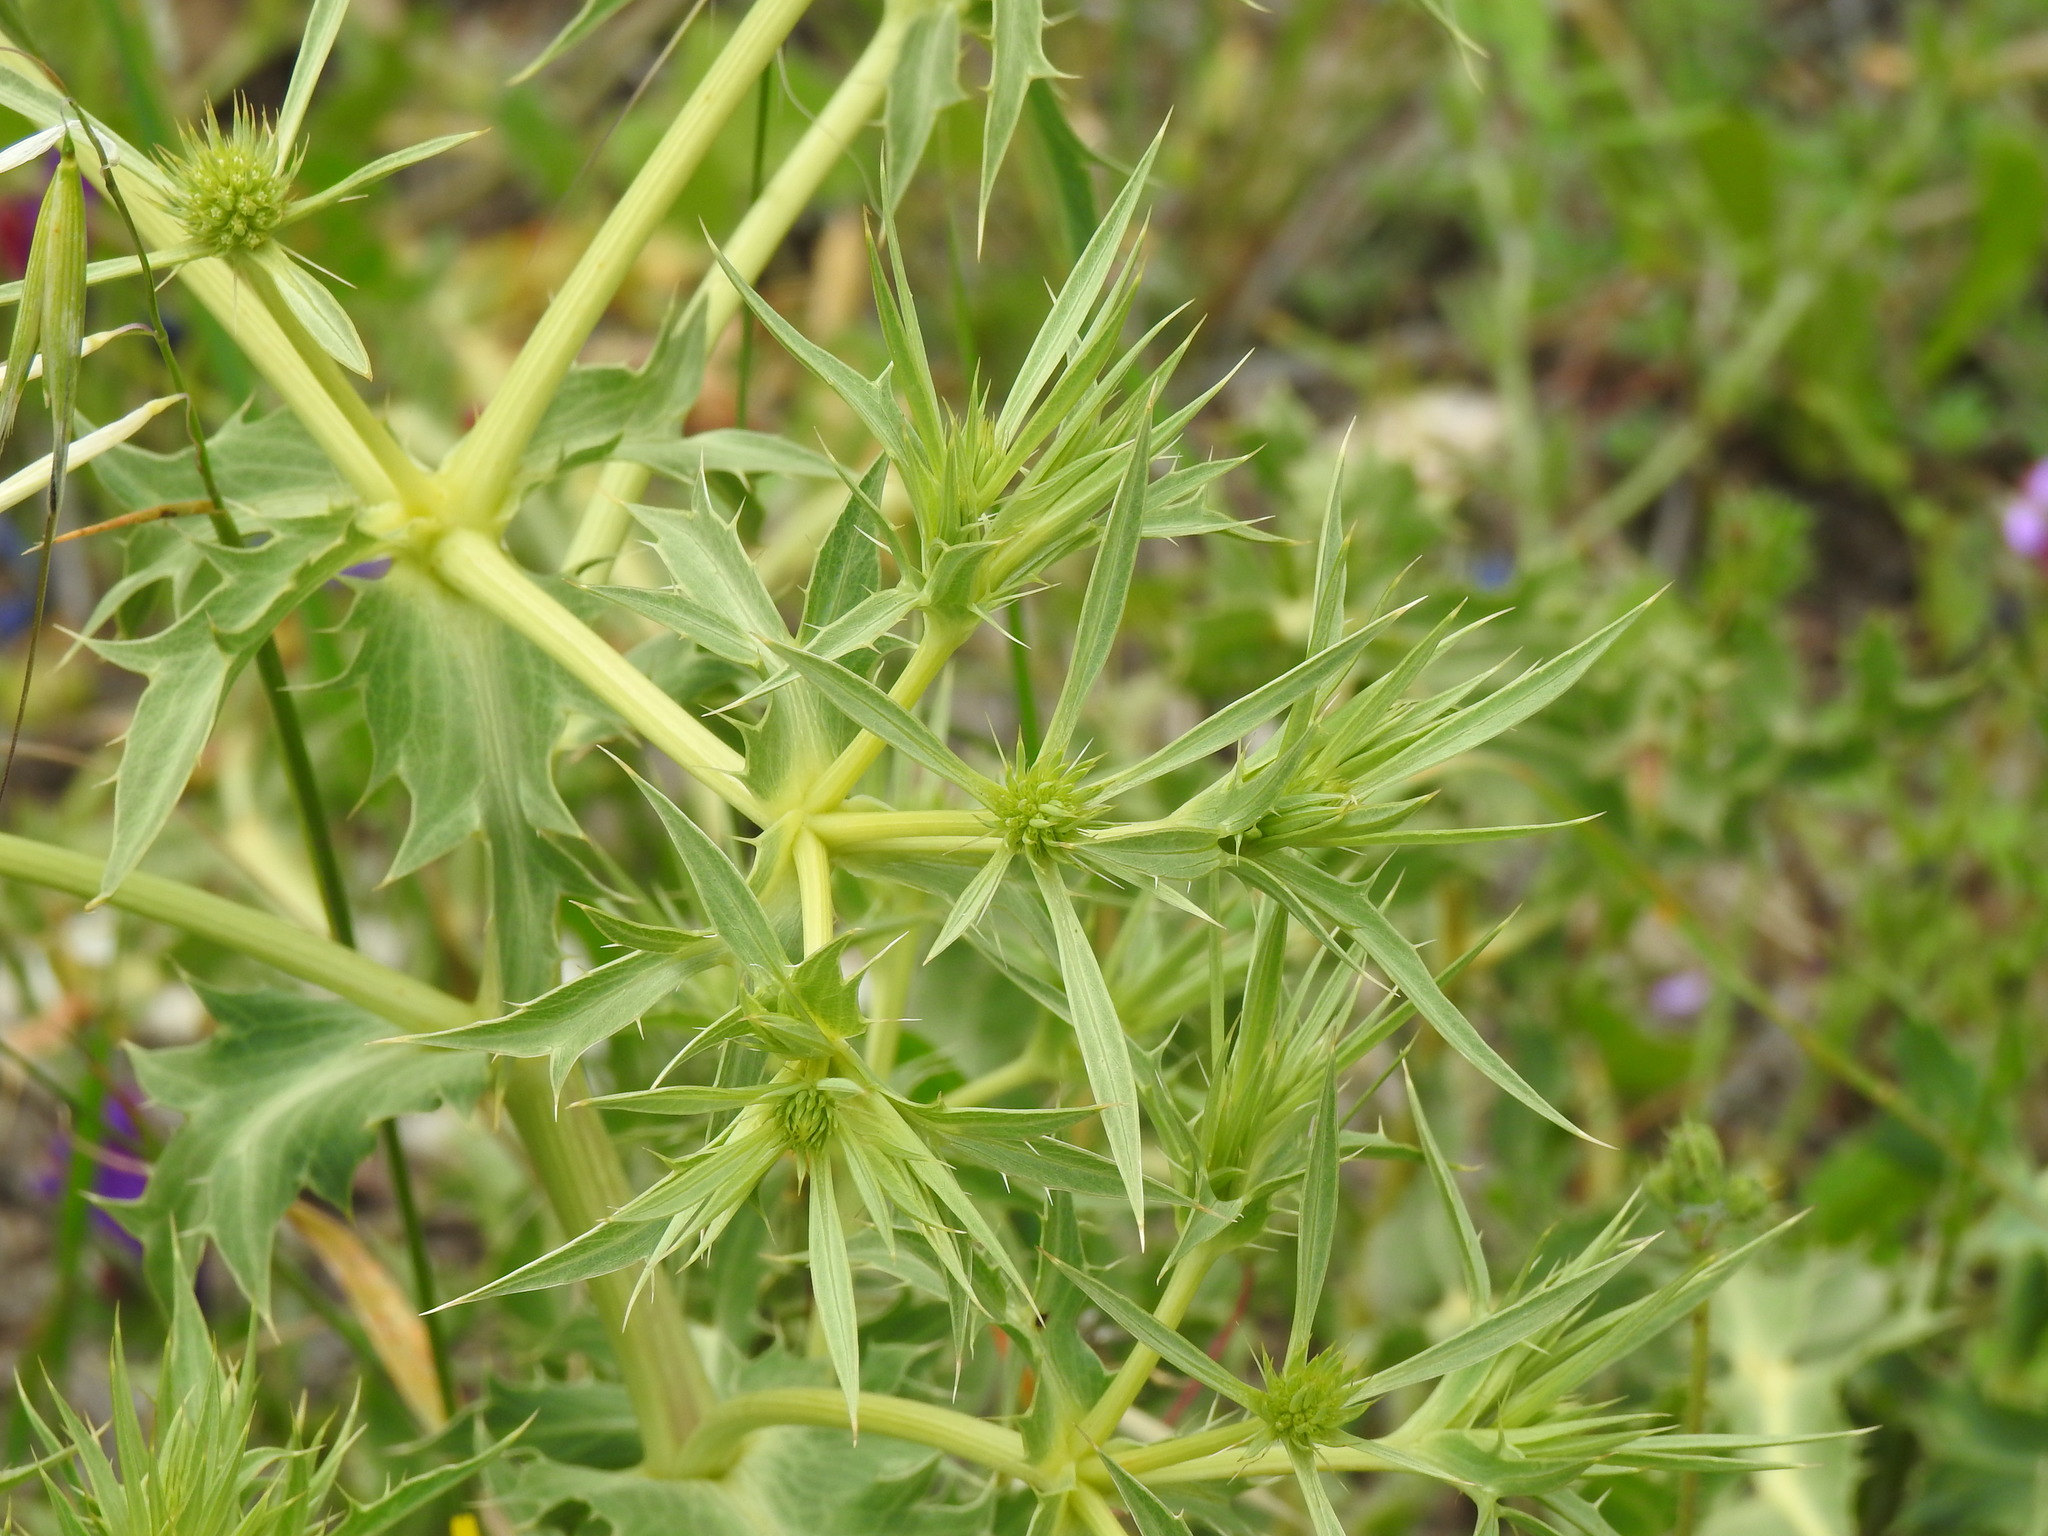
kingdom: Plantae
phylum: Tracheophyta
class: Magnoliopsida
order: Apiales
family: Apiaceae
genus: Eryngium
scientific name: Eryngium campestre
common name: Field eryngo
